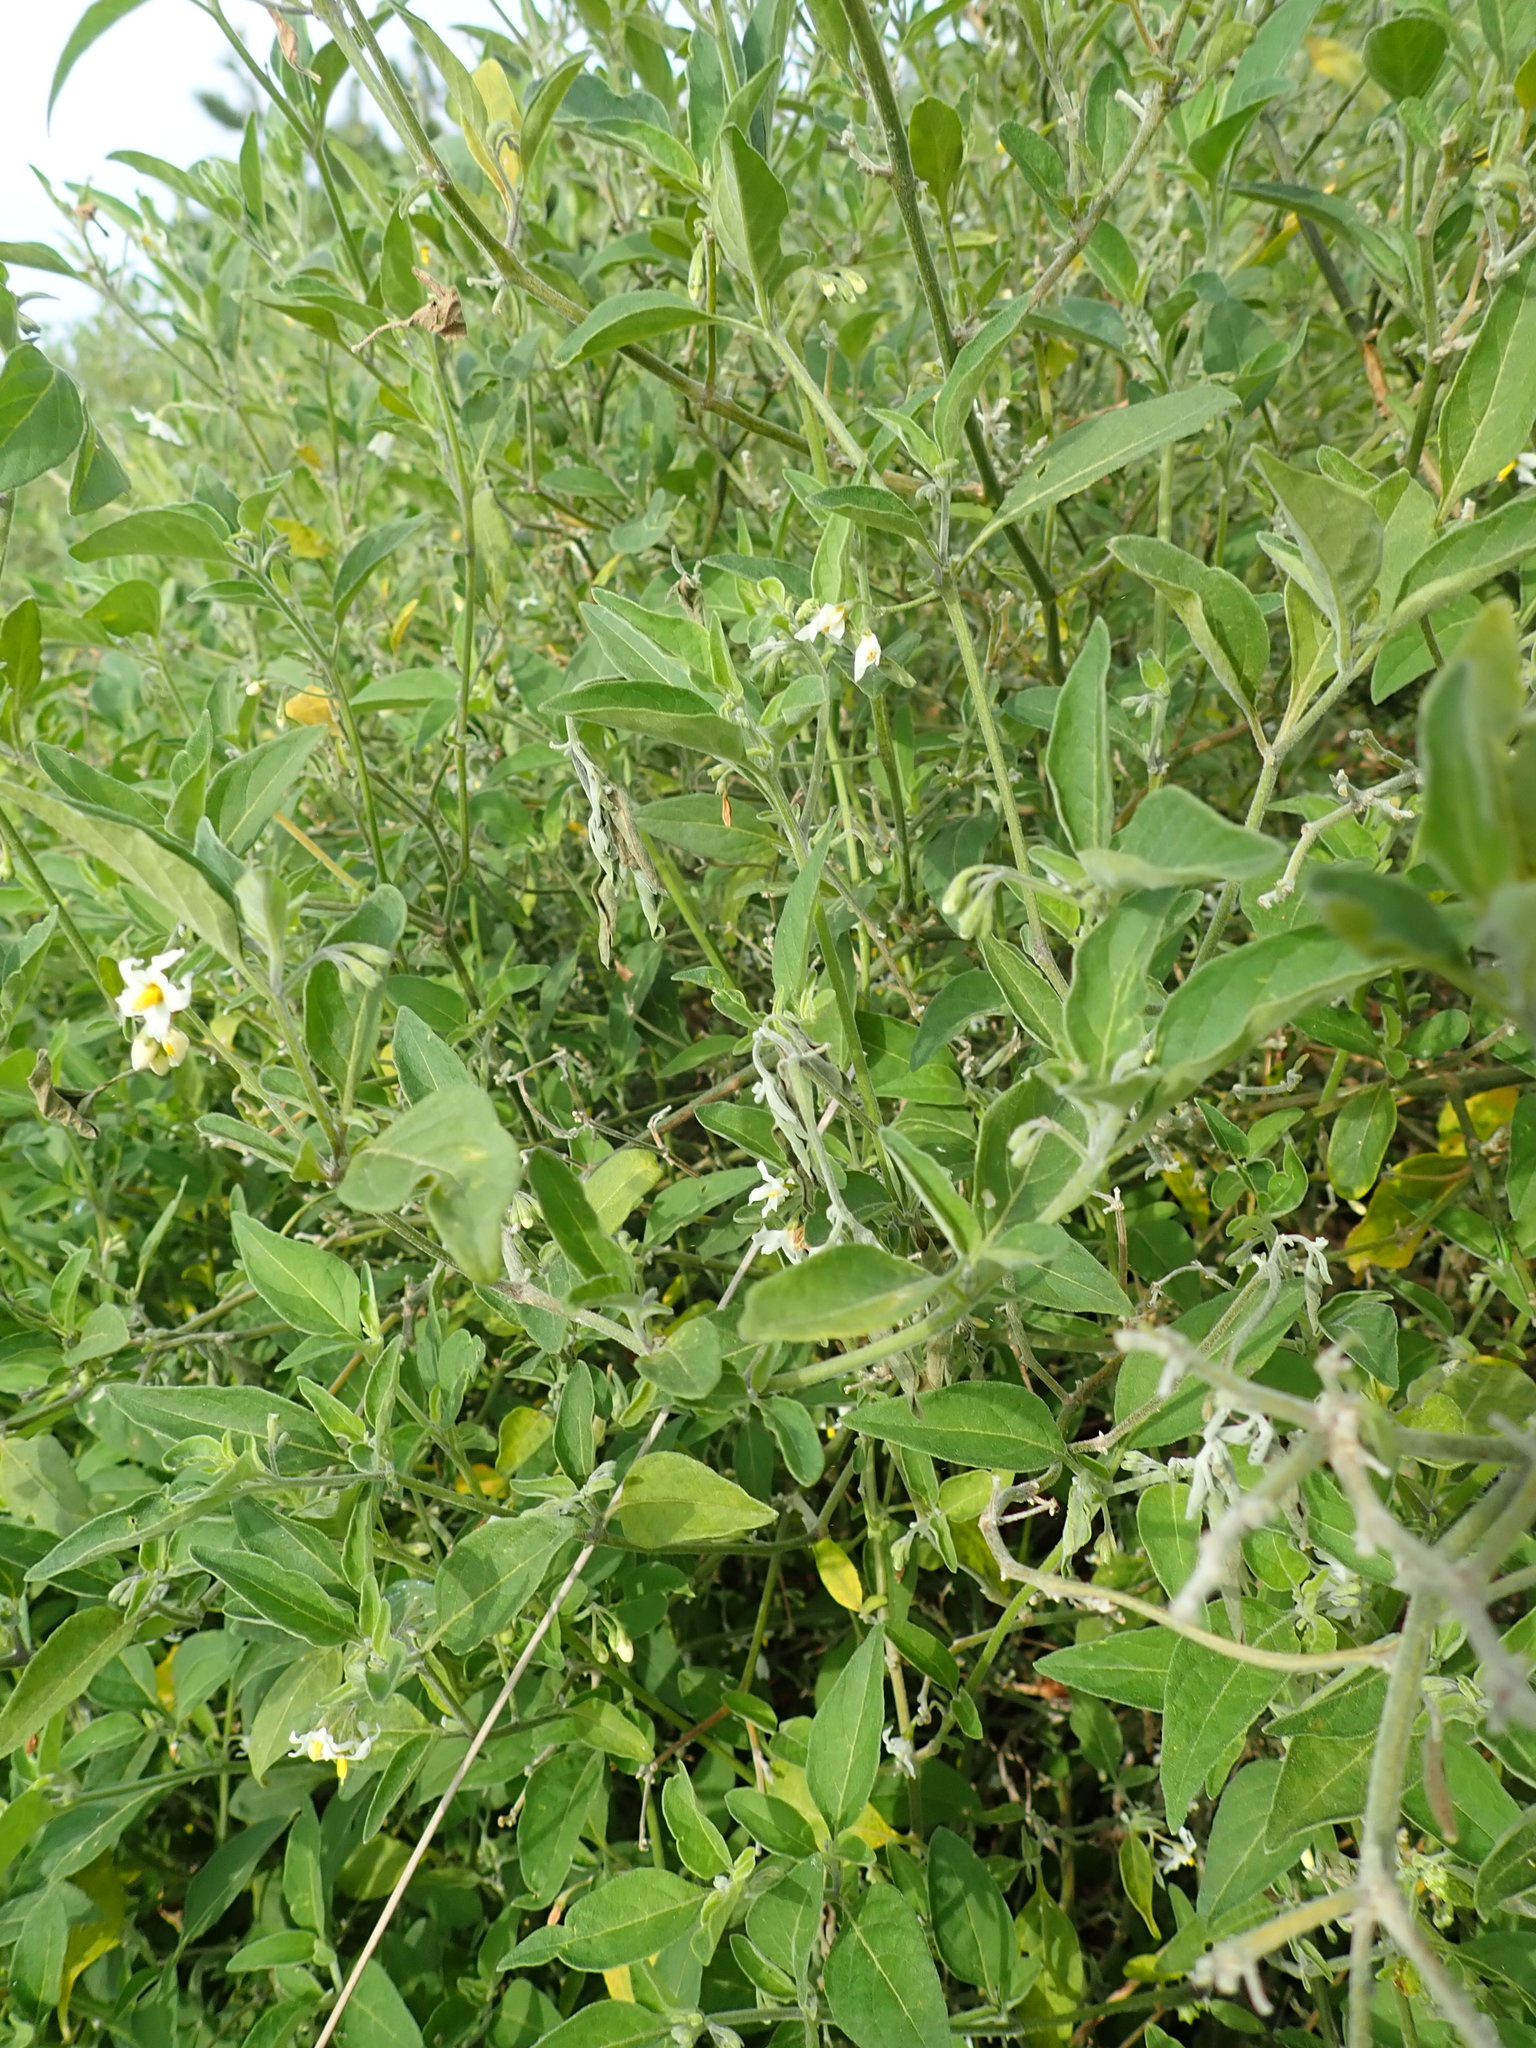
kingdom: Plantae
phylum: Tracheophyta
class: Magnoliopsida
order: Solanales
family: Solanaceae
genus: Solanum
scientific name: Solanum chenopodioides
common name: Tall nightshade
